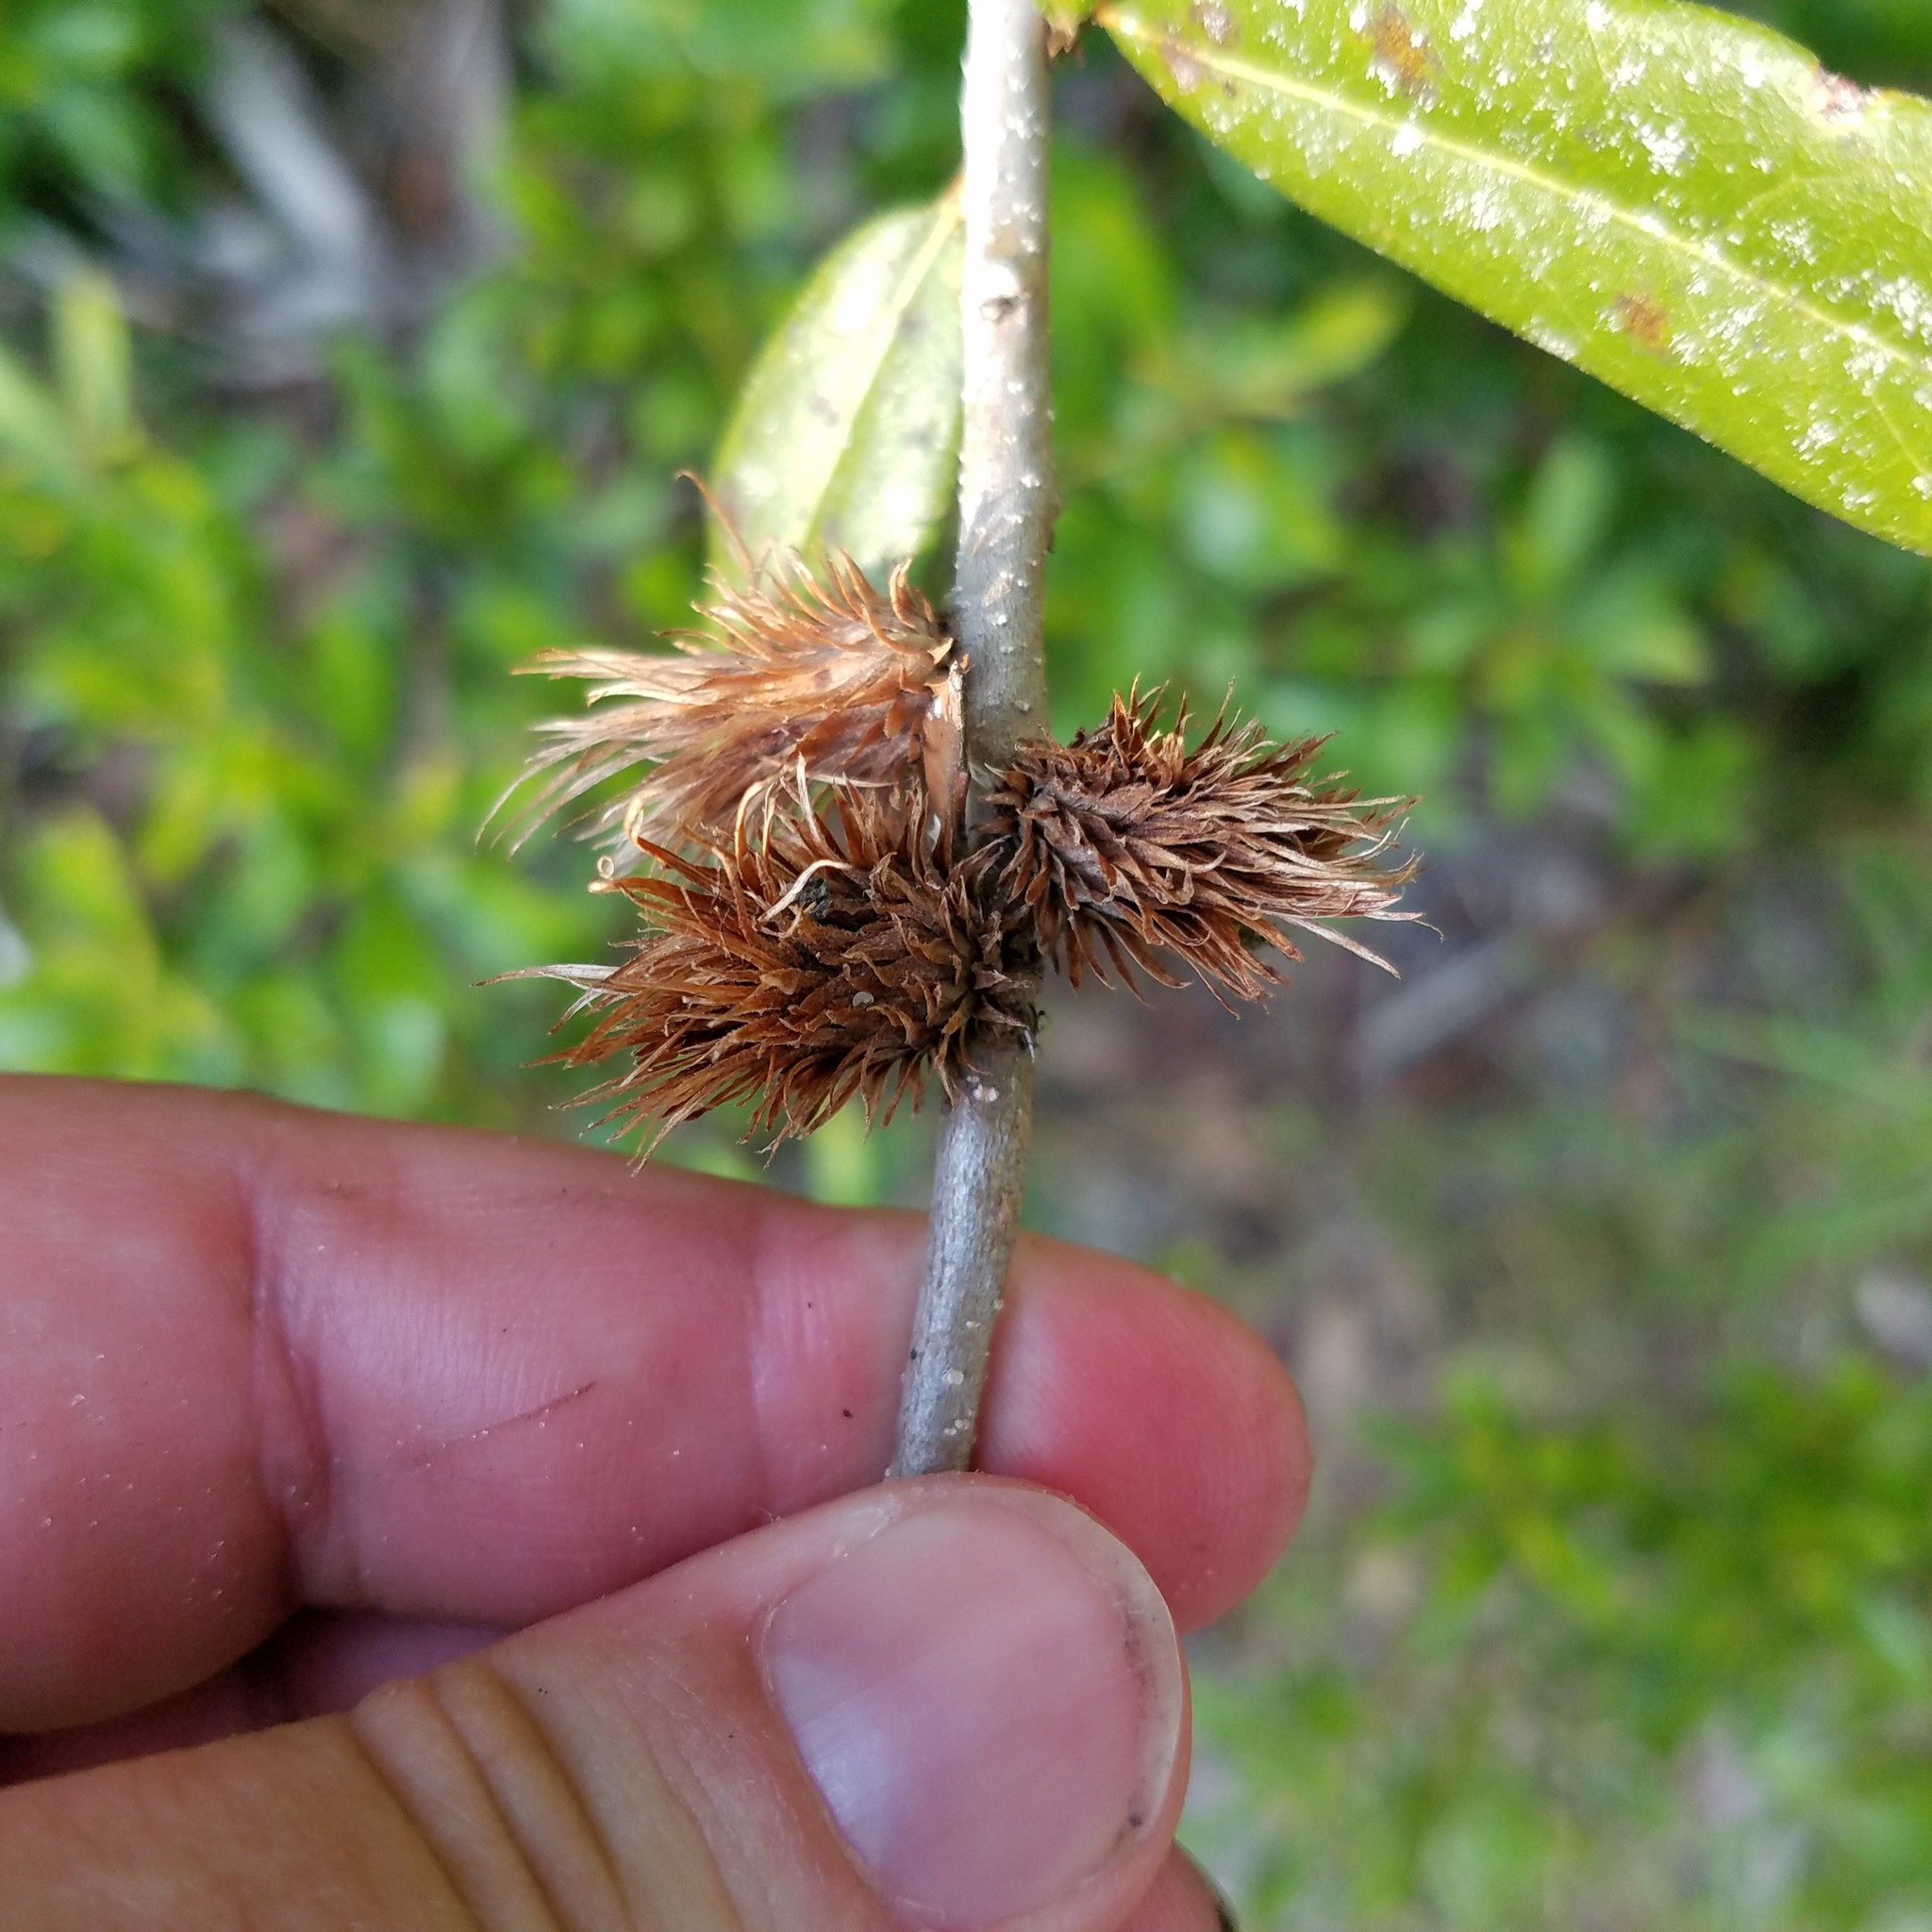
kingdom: Animalia
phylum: Arthropoda
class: Insecta
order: Hymenoptera
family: Cynipidae
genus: Andricus
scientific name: Andricus quercusfoliatus
